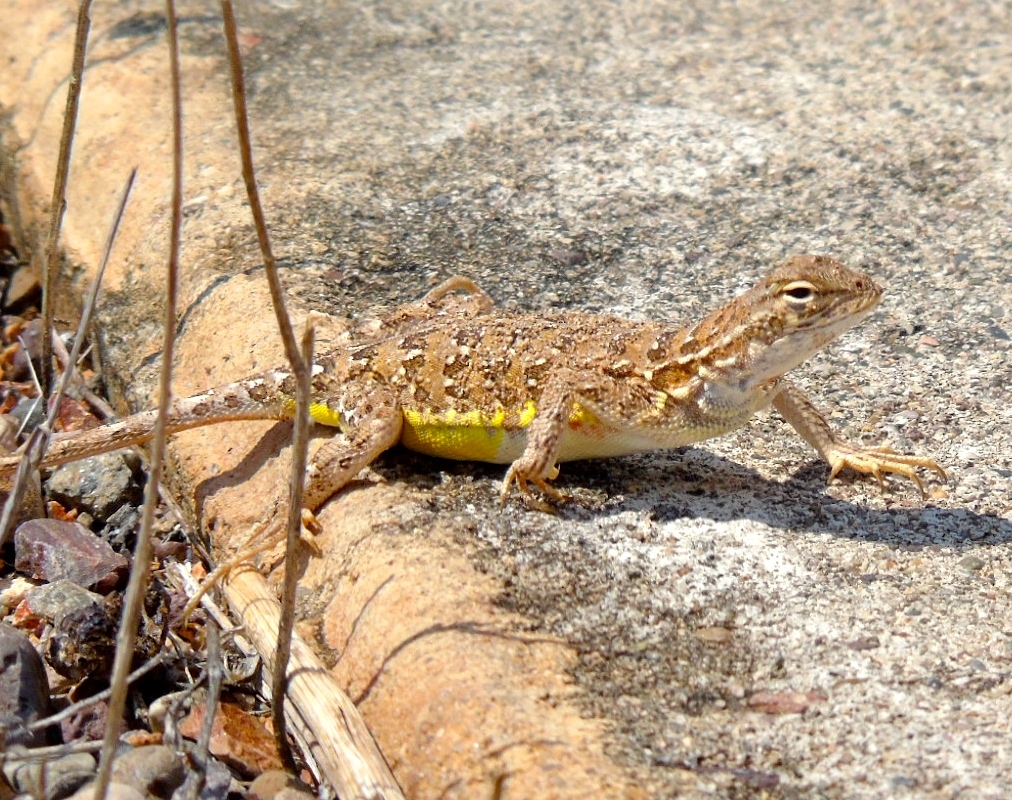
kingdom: Animalia
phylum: Chordata
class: Squamata
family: Phrynosomatidae
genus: Holbrookia
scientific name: Holbrookia elegans
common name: Elegant earless lizard
